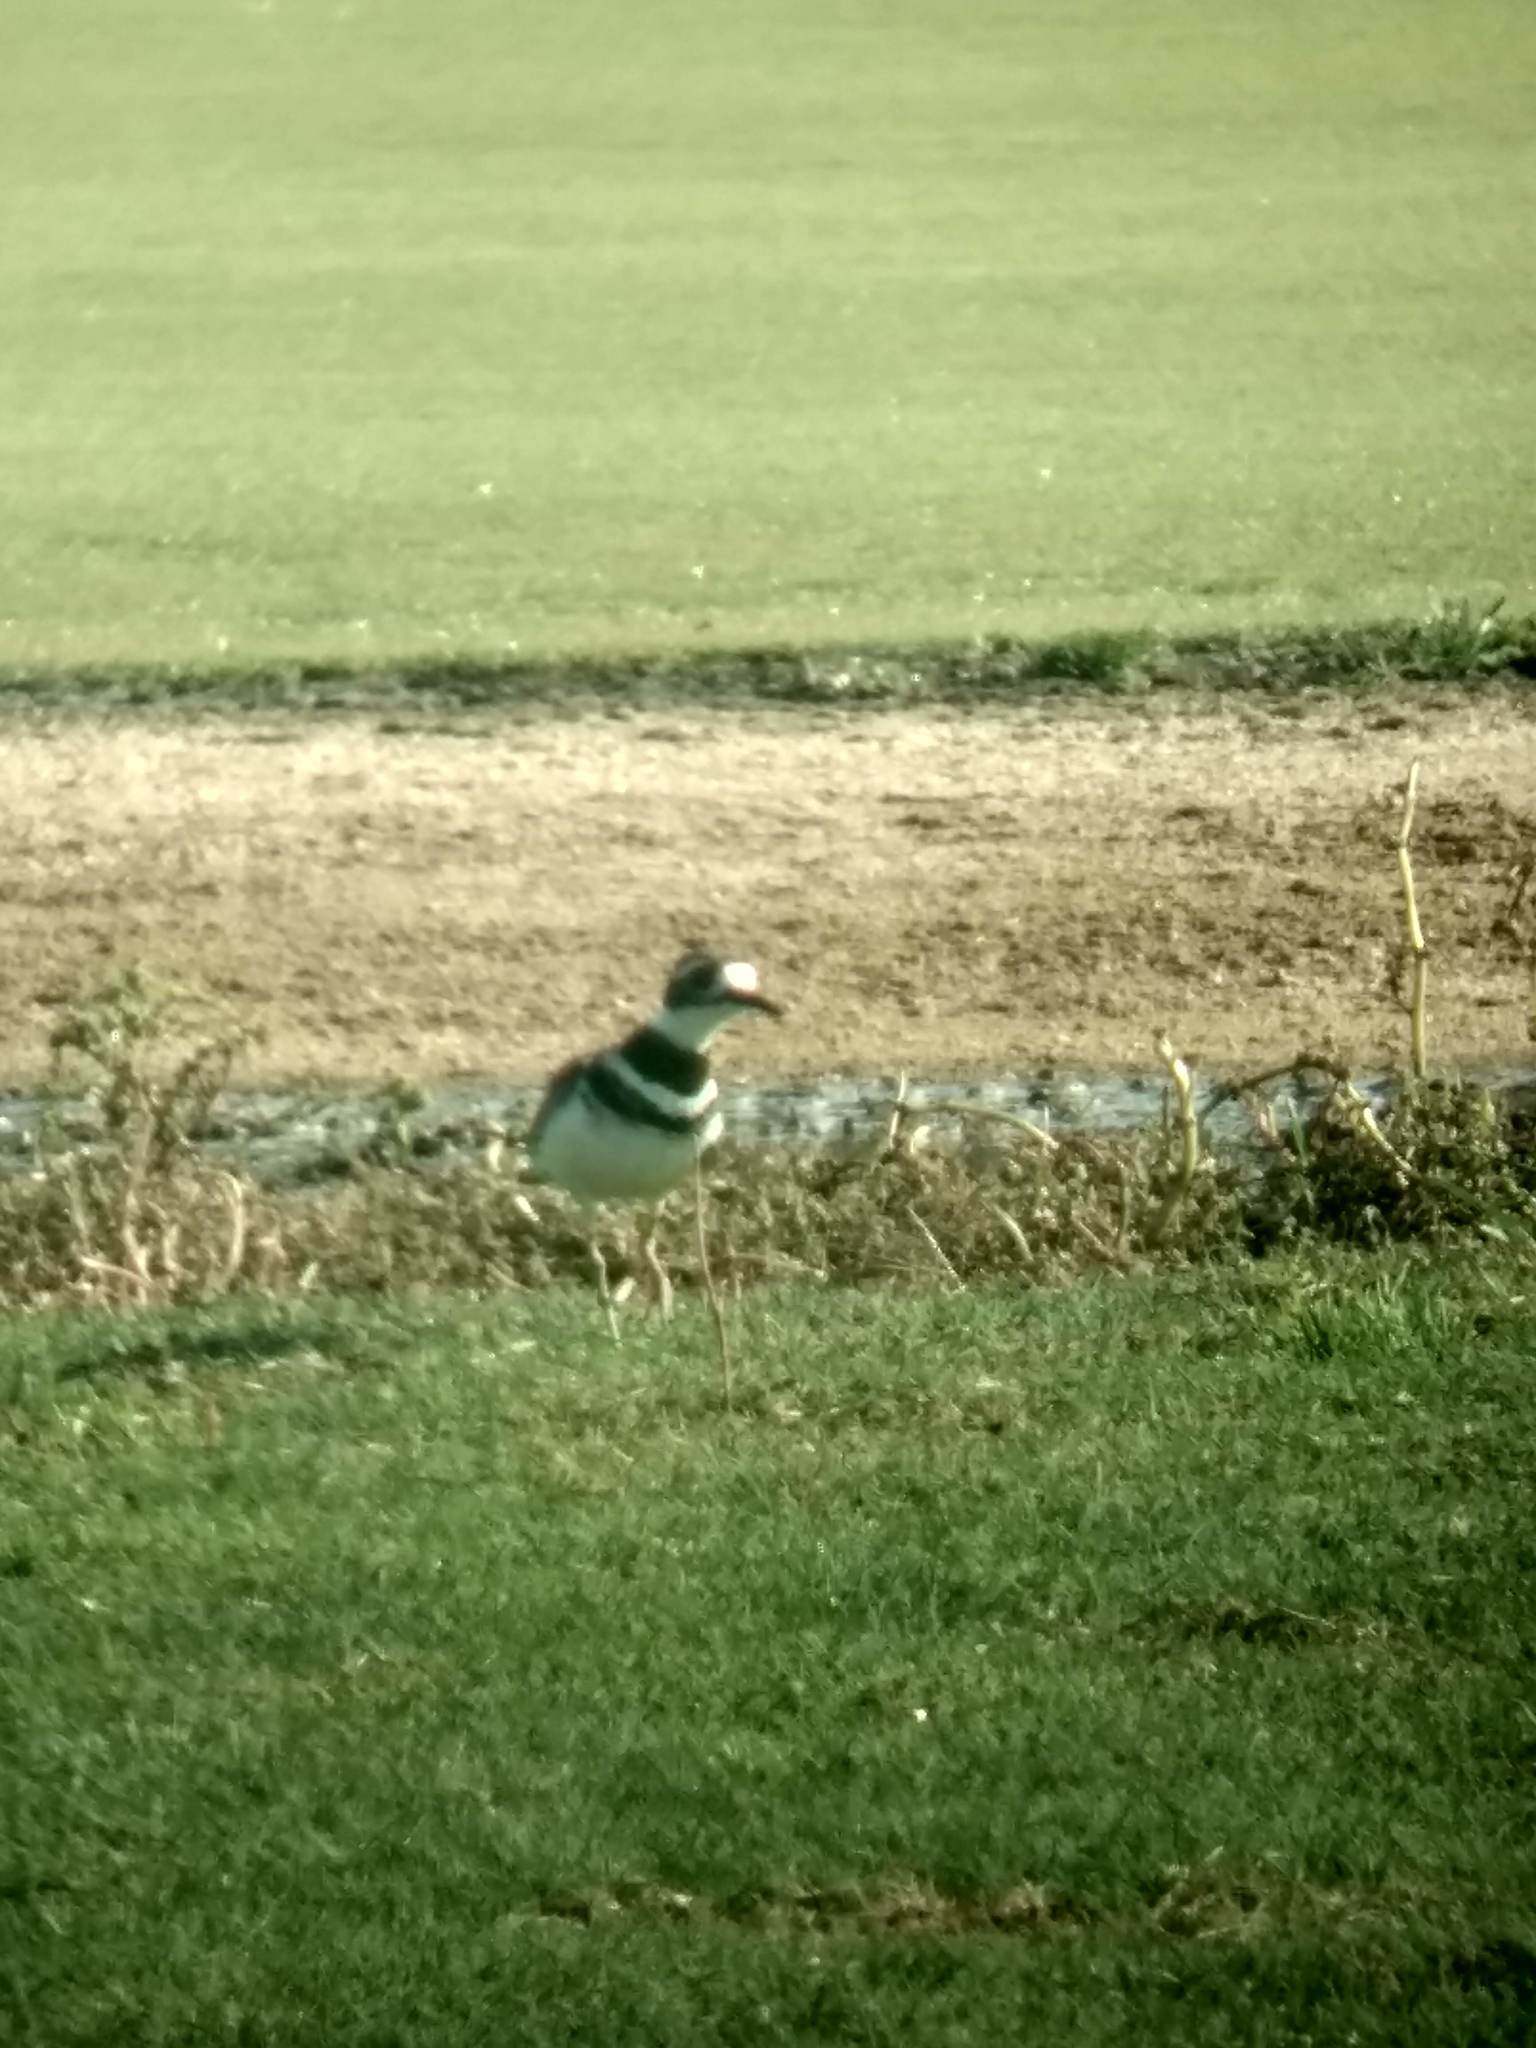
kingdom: Animalia
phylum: Chordata
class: Aves
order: Charadriiformes
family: Charadriidae
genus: Charadrius
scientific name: Charadrius vociferus
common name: Killdeer
